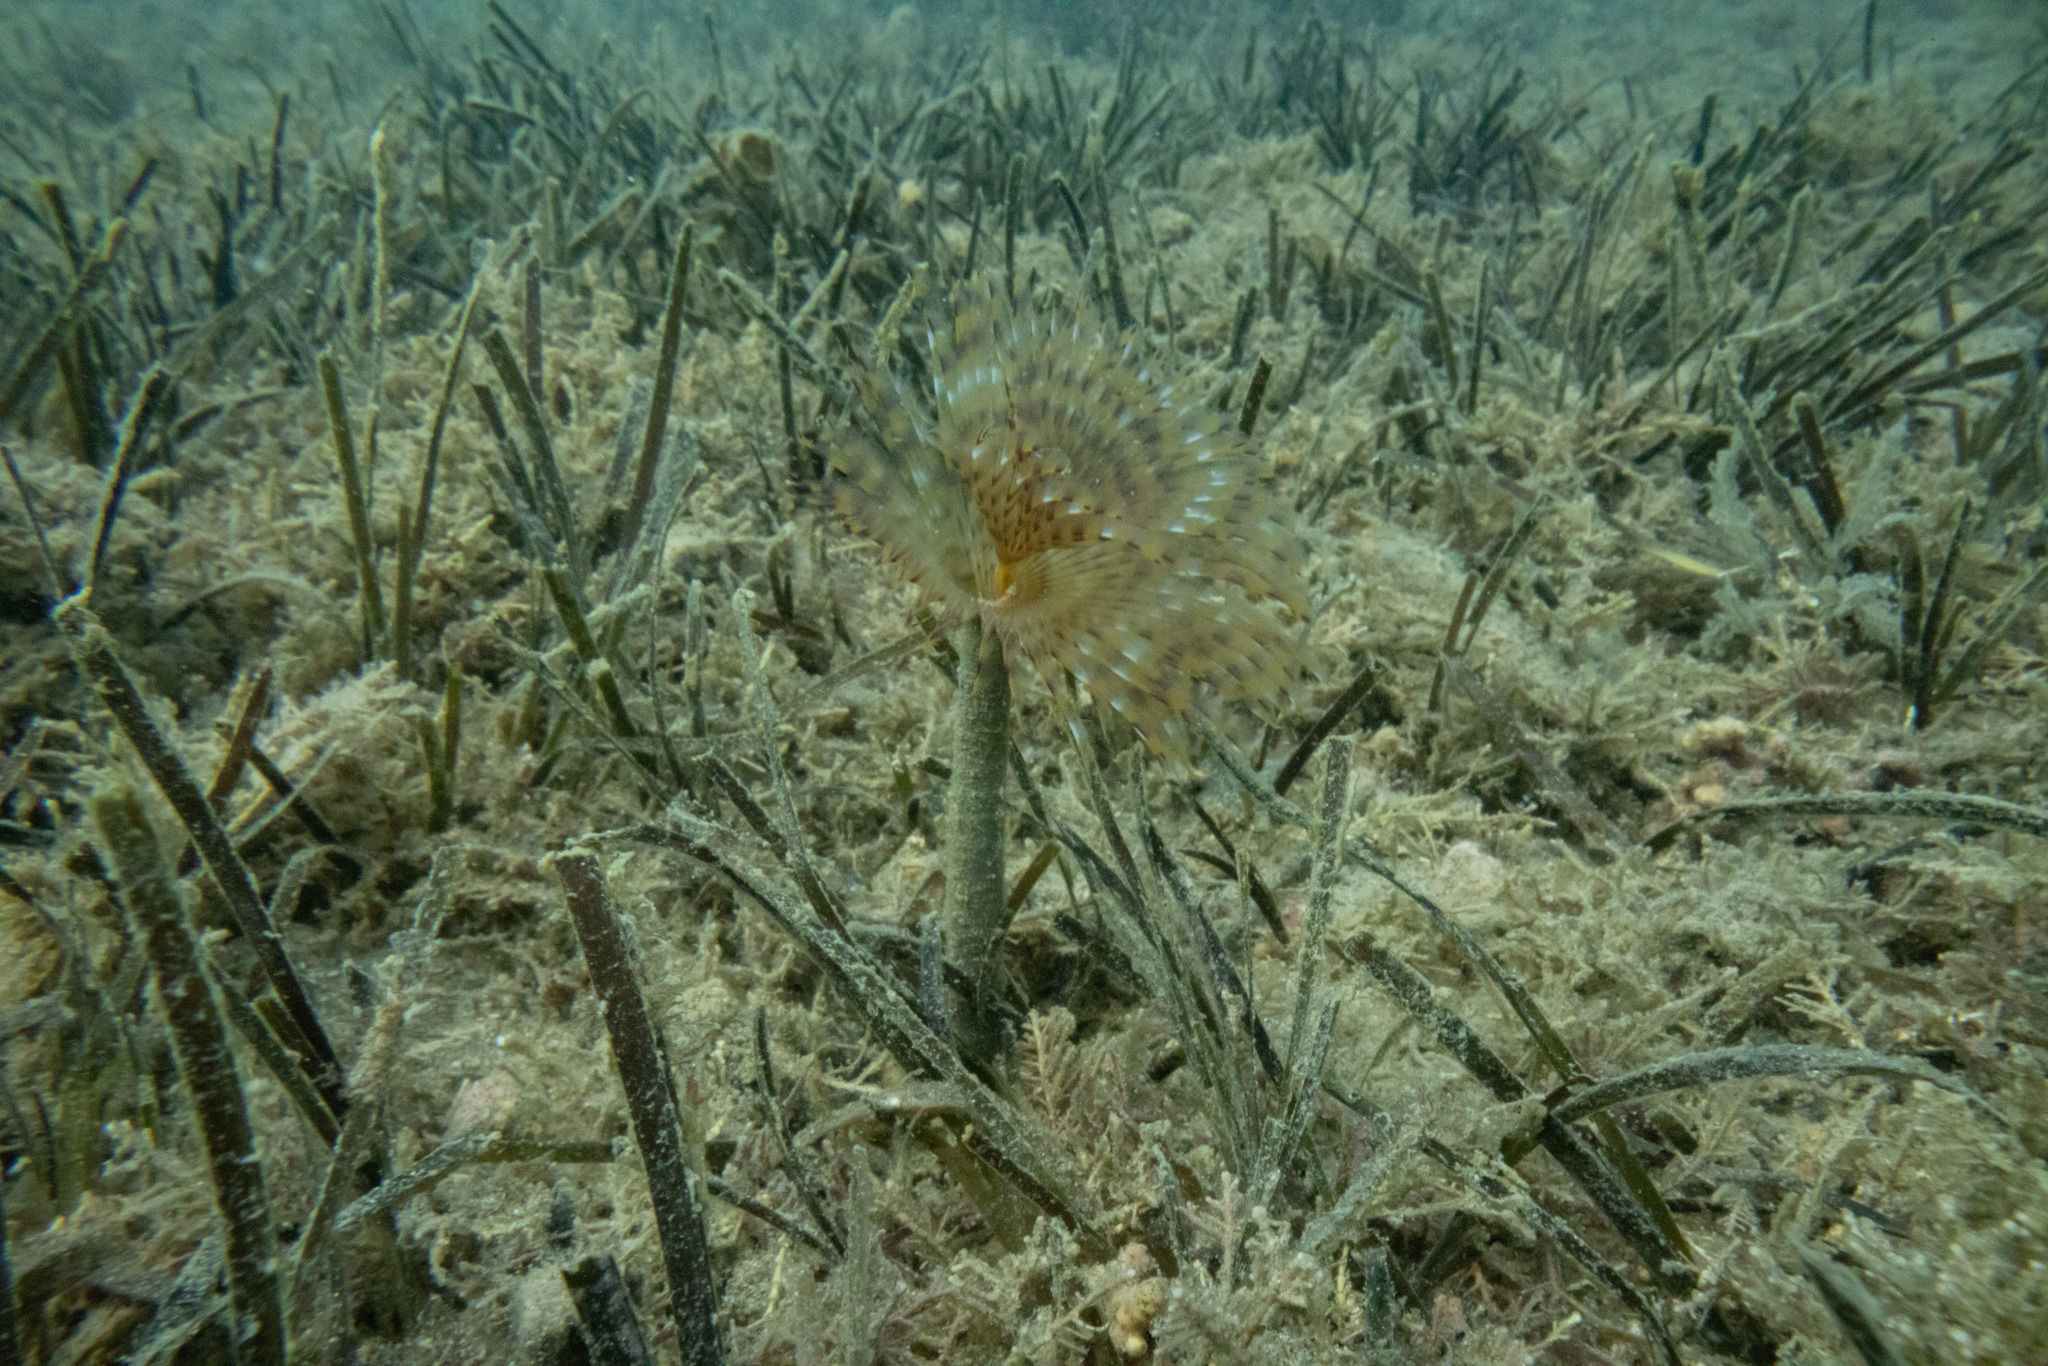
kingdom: Animalia
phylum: Annelida
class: Polychaeta
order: Sabellida
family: Sabellidae
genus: Sabella
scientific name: Sabella spallanzanii
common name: Feather duster worm
